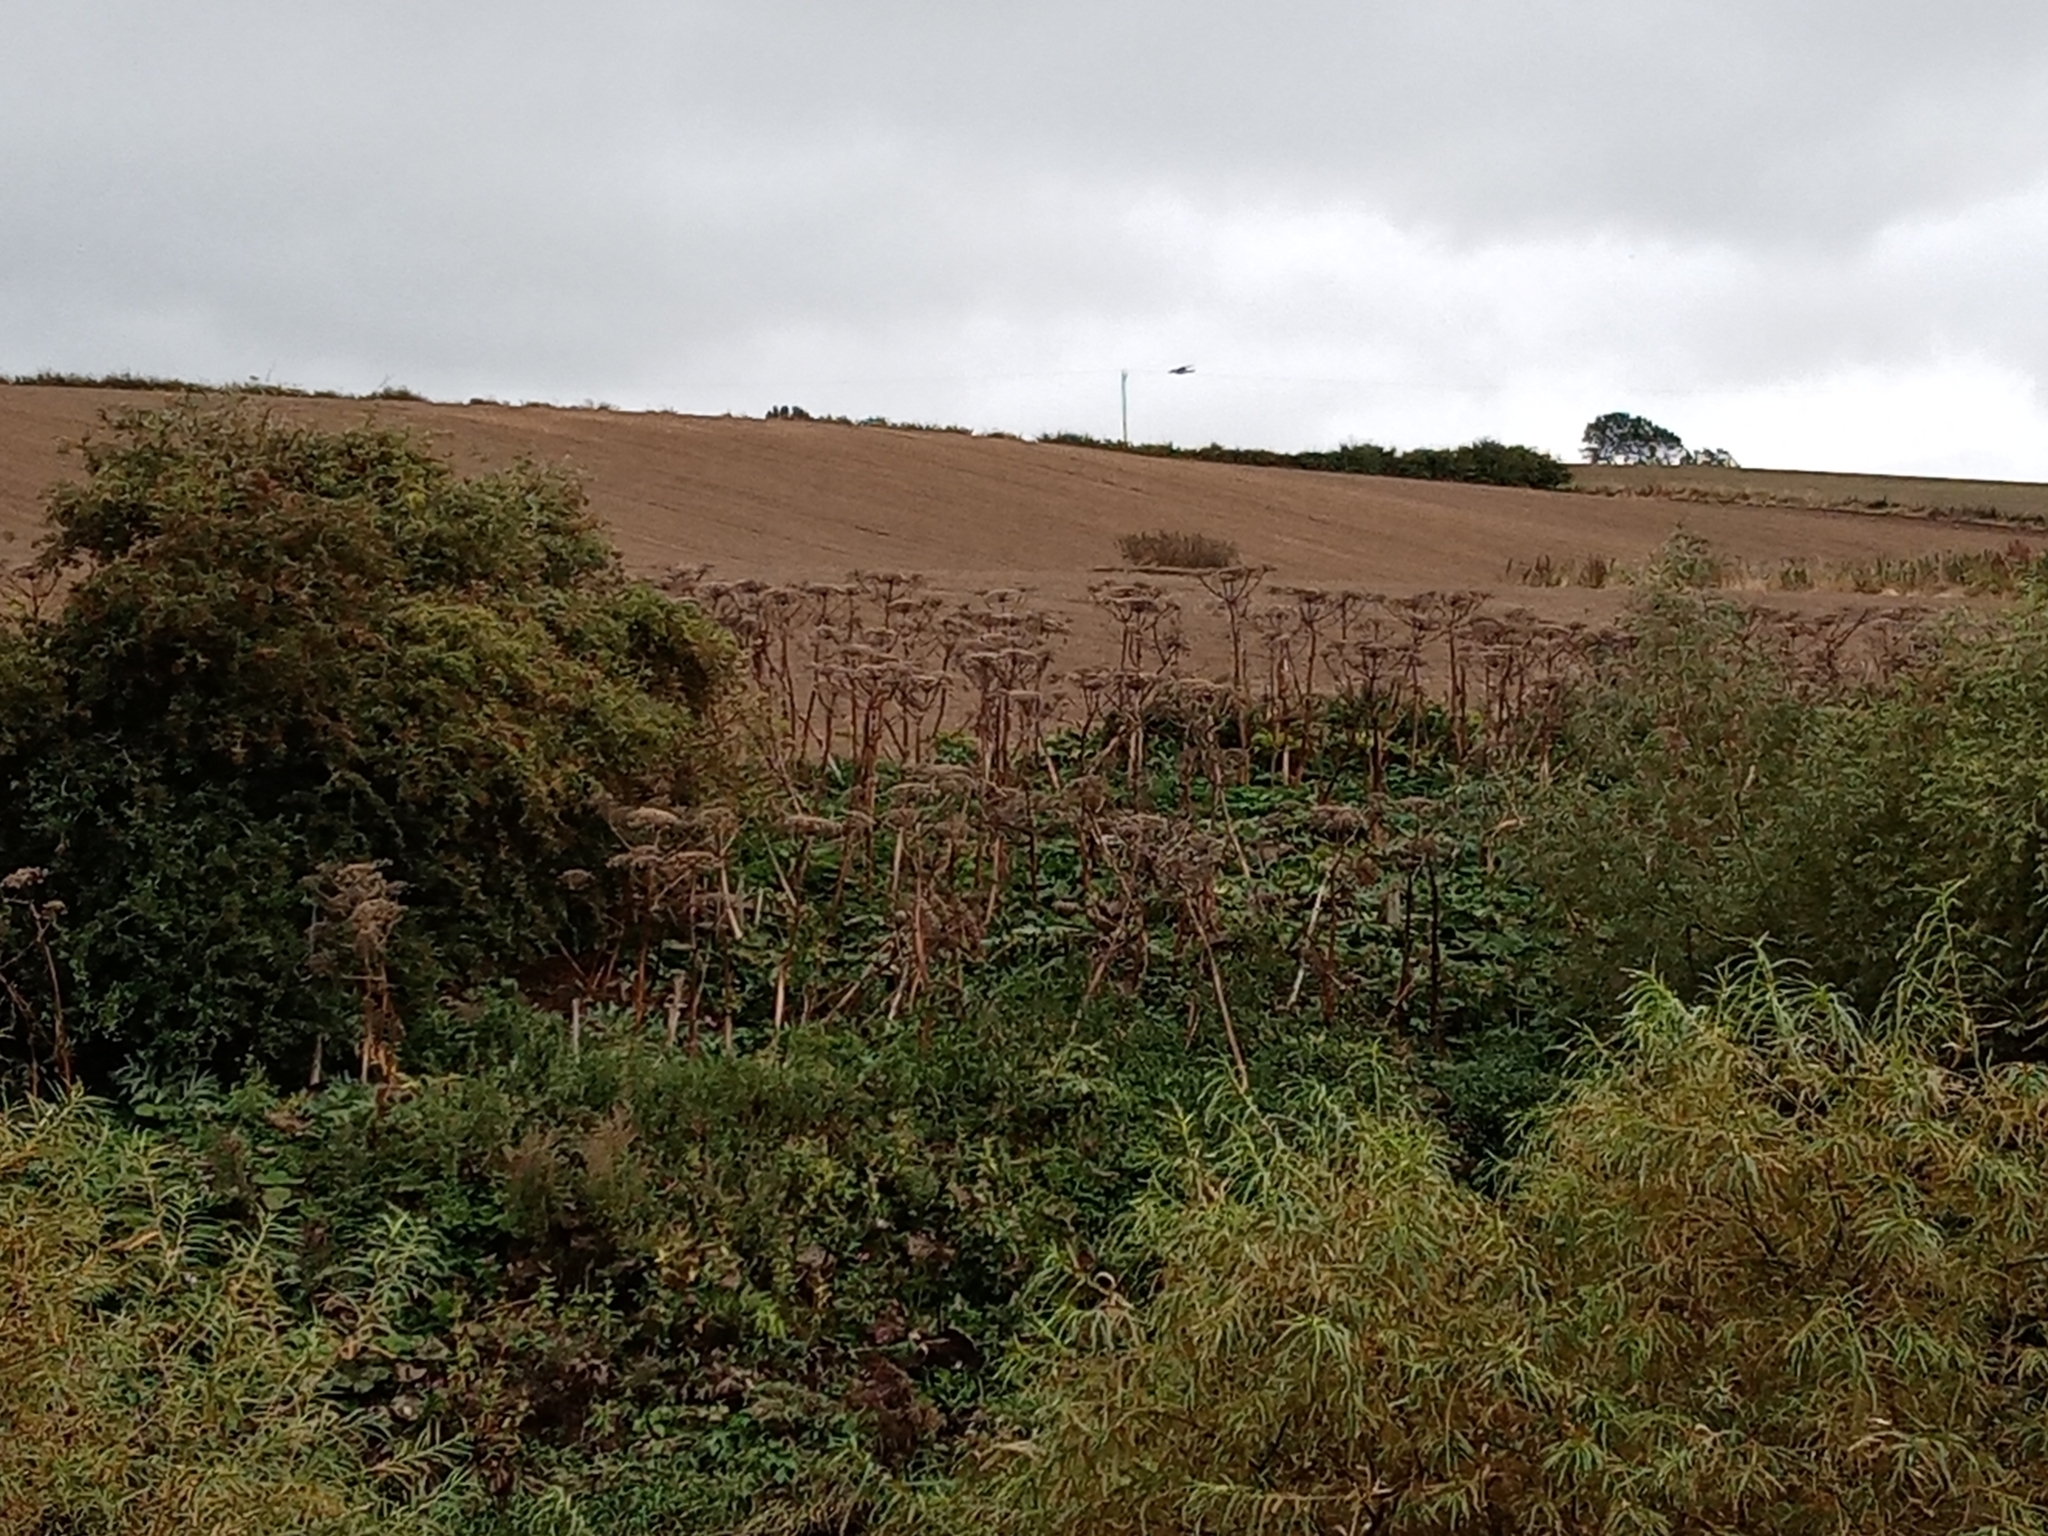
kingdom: Plantae
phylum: Tracheophyta
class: Magnoliopsida
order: Apiales
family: Apiaceae
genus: Heracleum
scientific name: Heracleum mantegazzianum
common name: Giant hogweed
